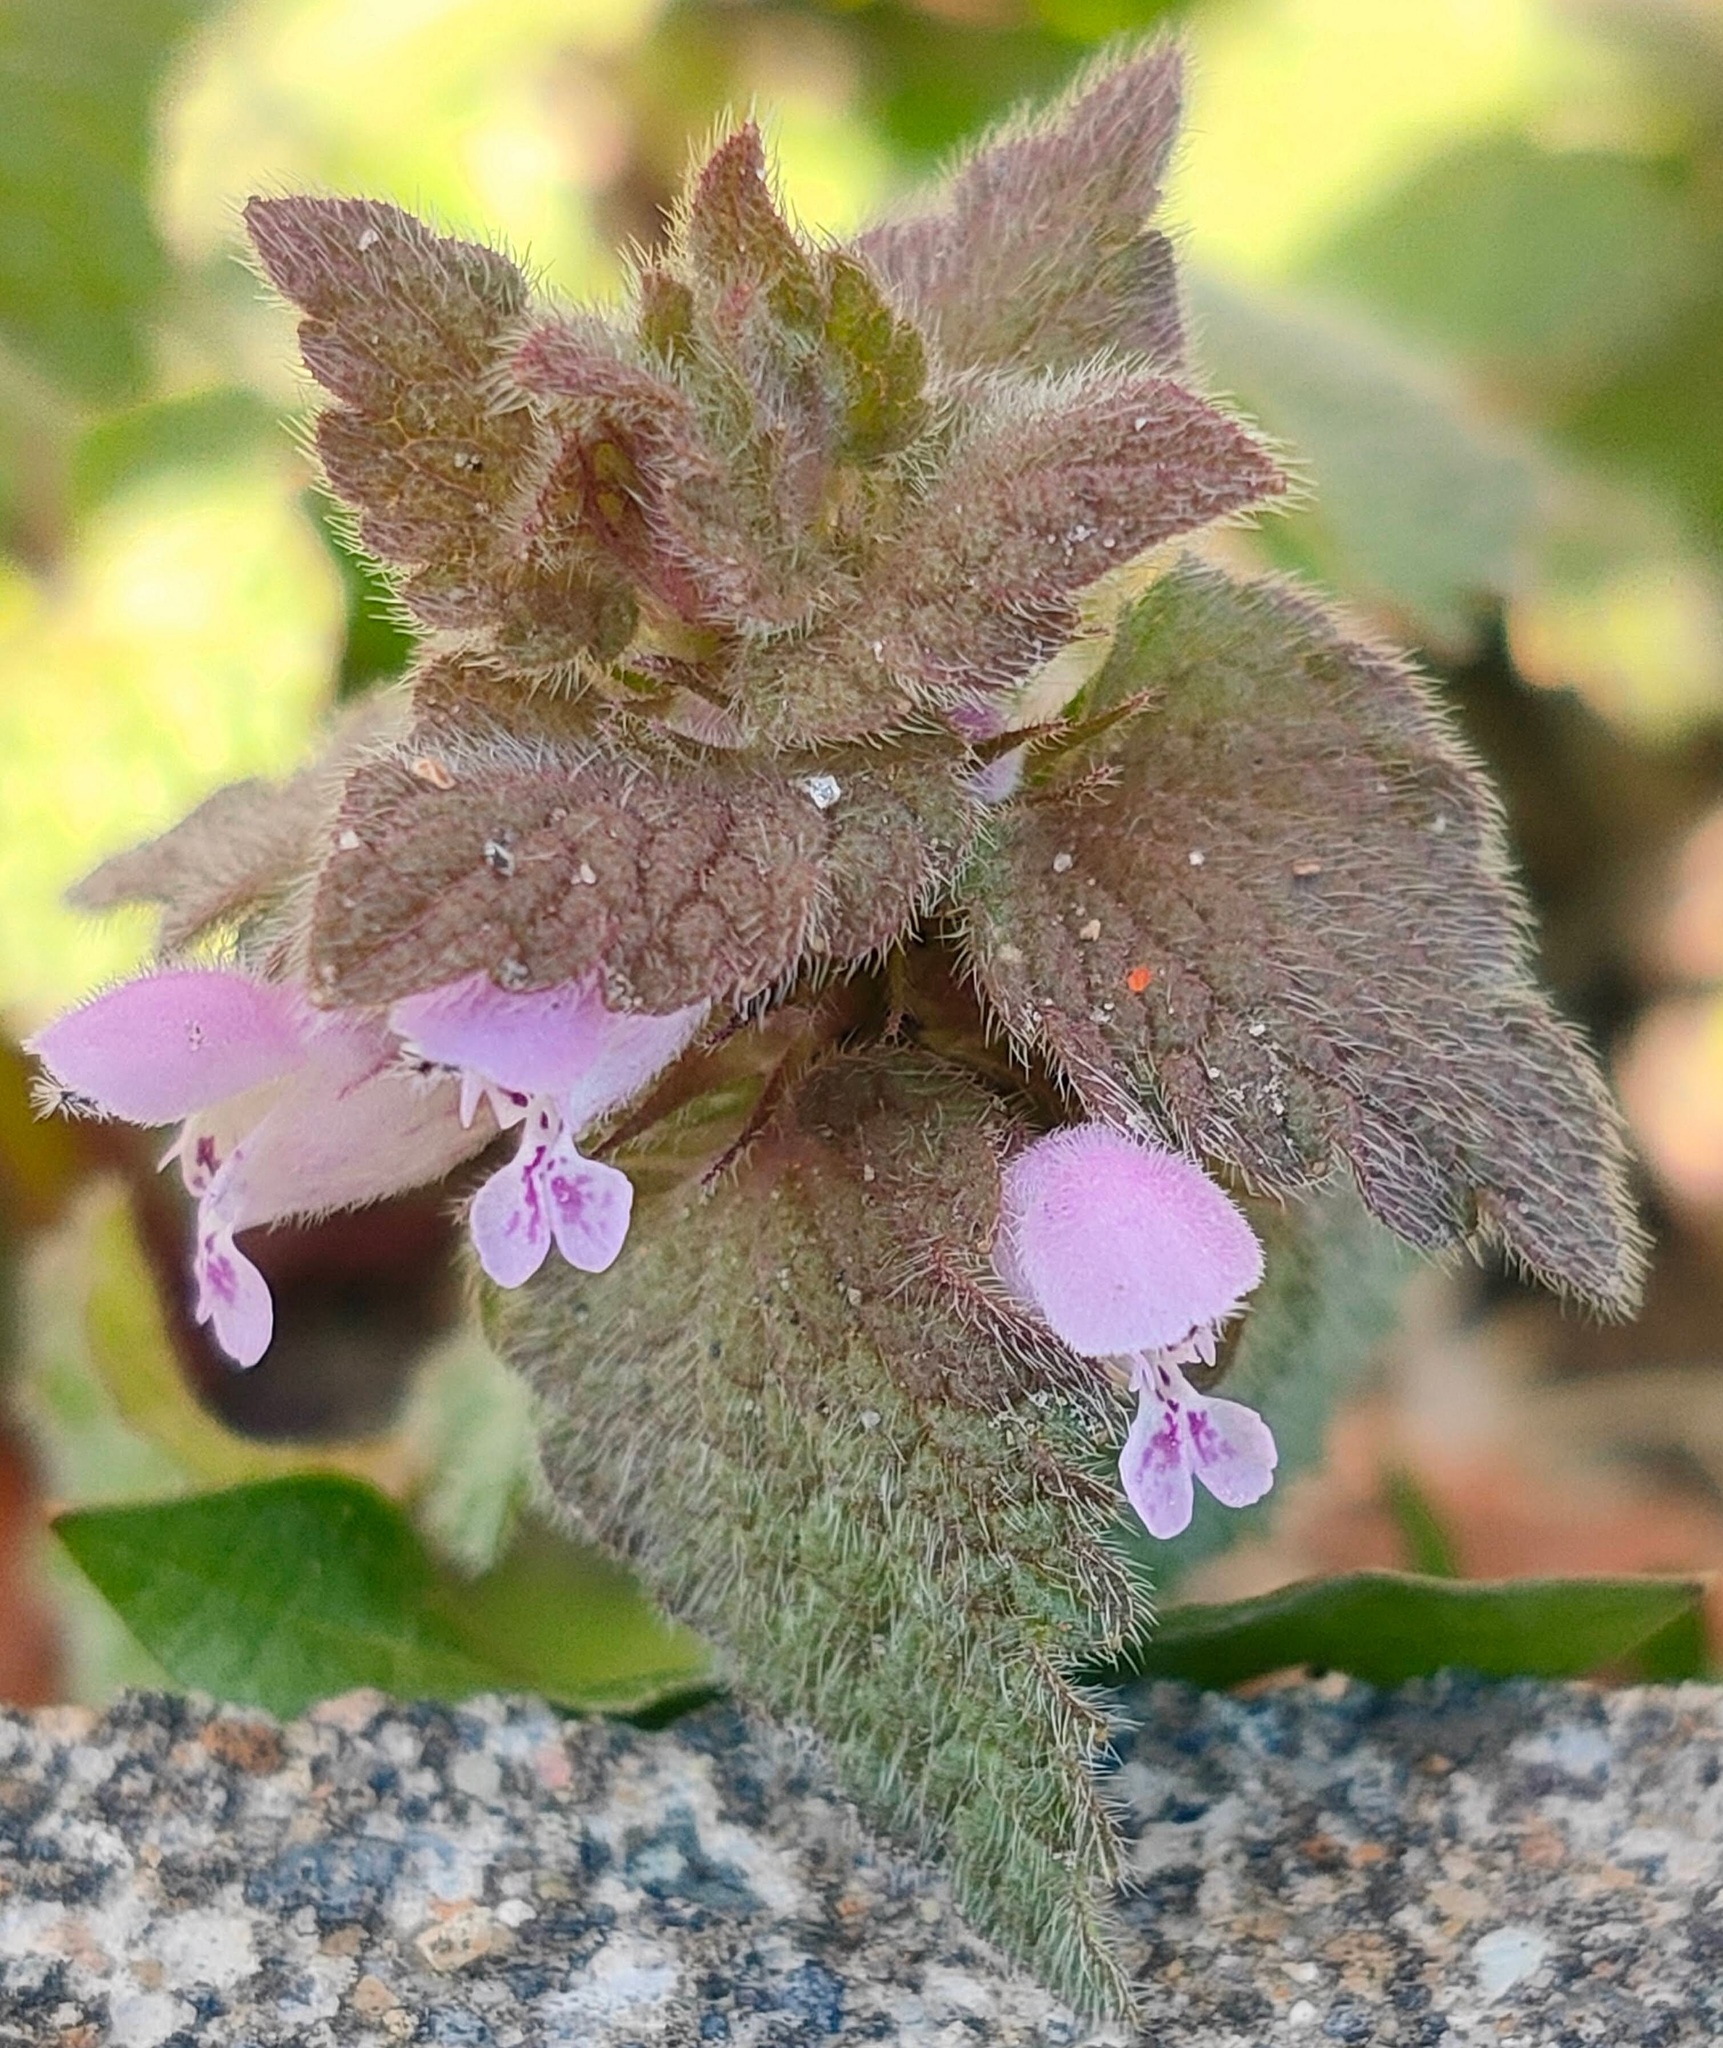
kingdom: Plantae
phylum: Tracheophyta
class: Magnoliopsida
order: Lamiales
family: Lamiaceae
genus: Lamium
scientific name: Lamium purpureum
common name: Red dead-nettle
